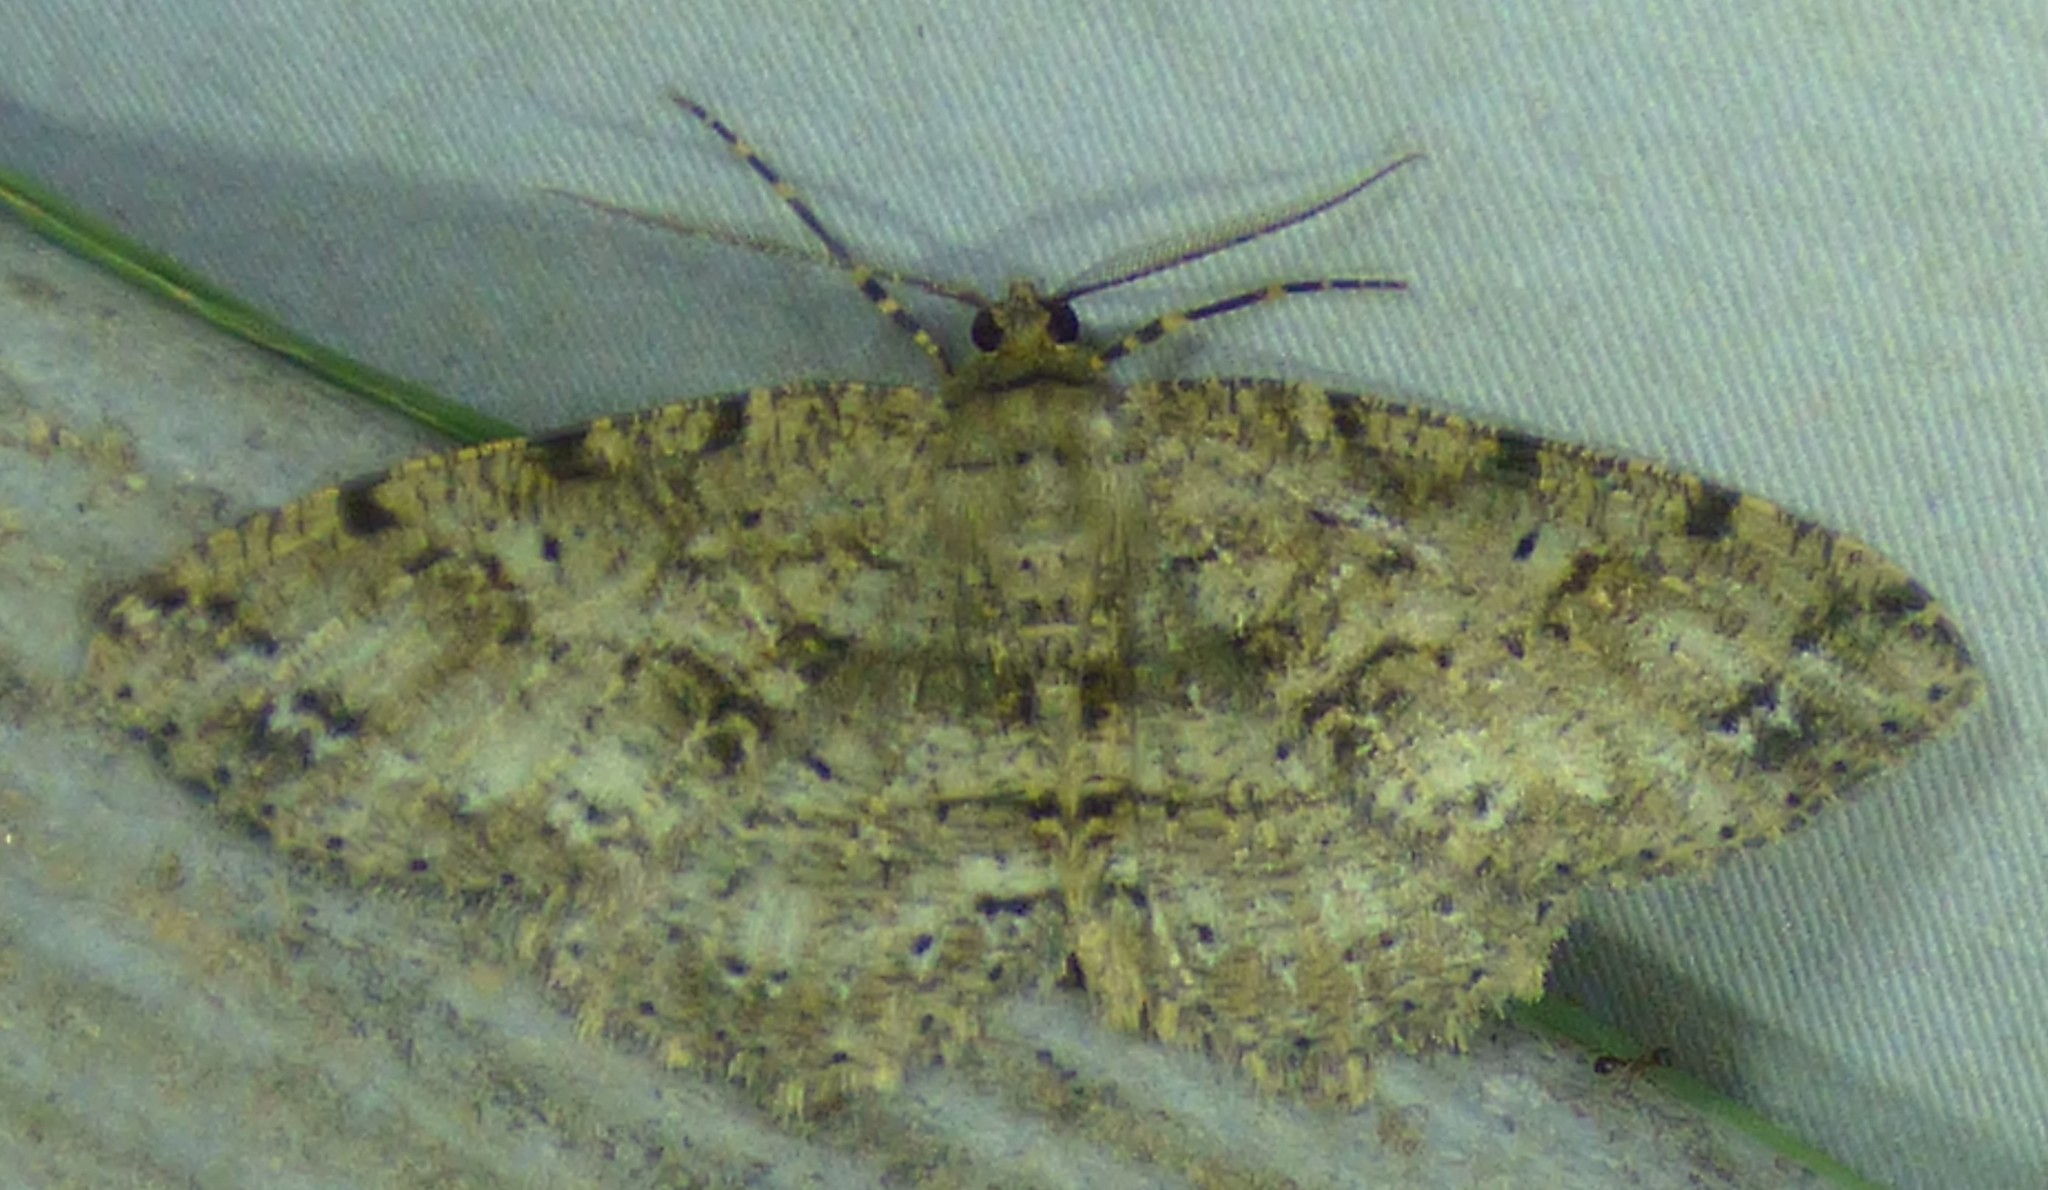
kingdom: Animalia
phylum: Arthropoda
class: Insecta
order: Lepidoptera
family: Geometridae
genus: Melanolophia
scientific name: Melanolophia canadaria
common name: Canadian melanolophia
